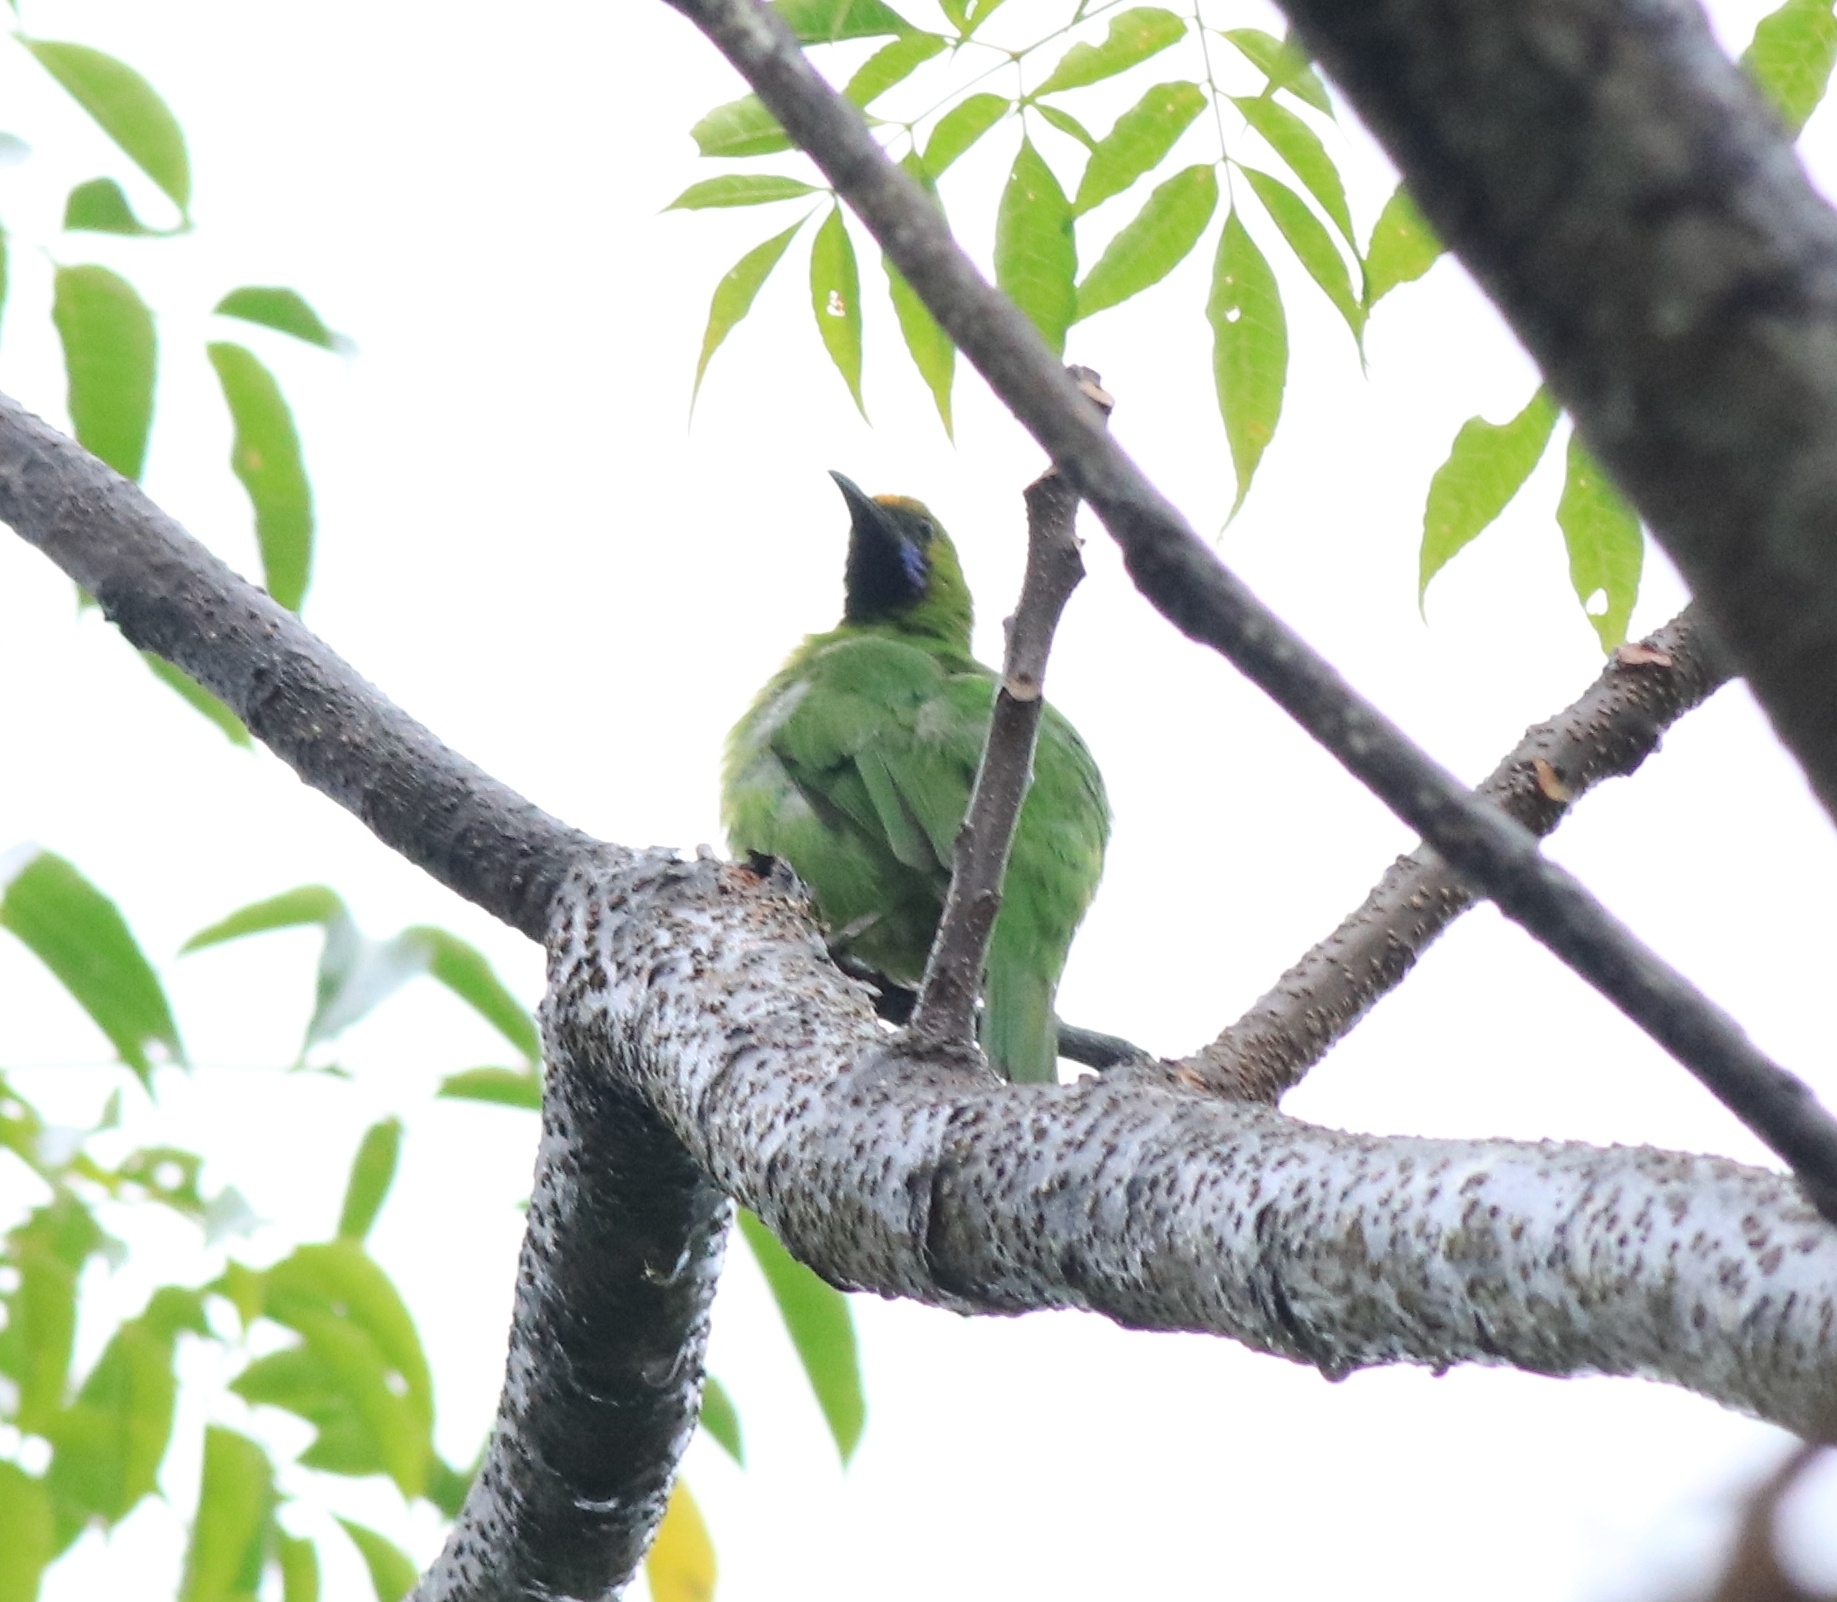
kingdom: Animalia
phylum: Chordata
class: Aves
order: Passeriformes
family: Chloropseidae
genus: Chloropsis
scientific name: Chloropsis aurifrons
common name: Golden-fronted leafbird
